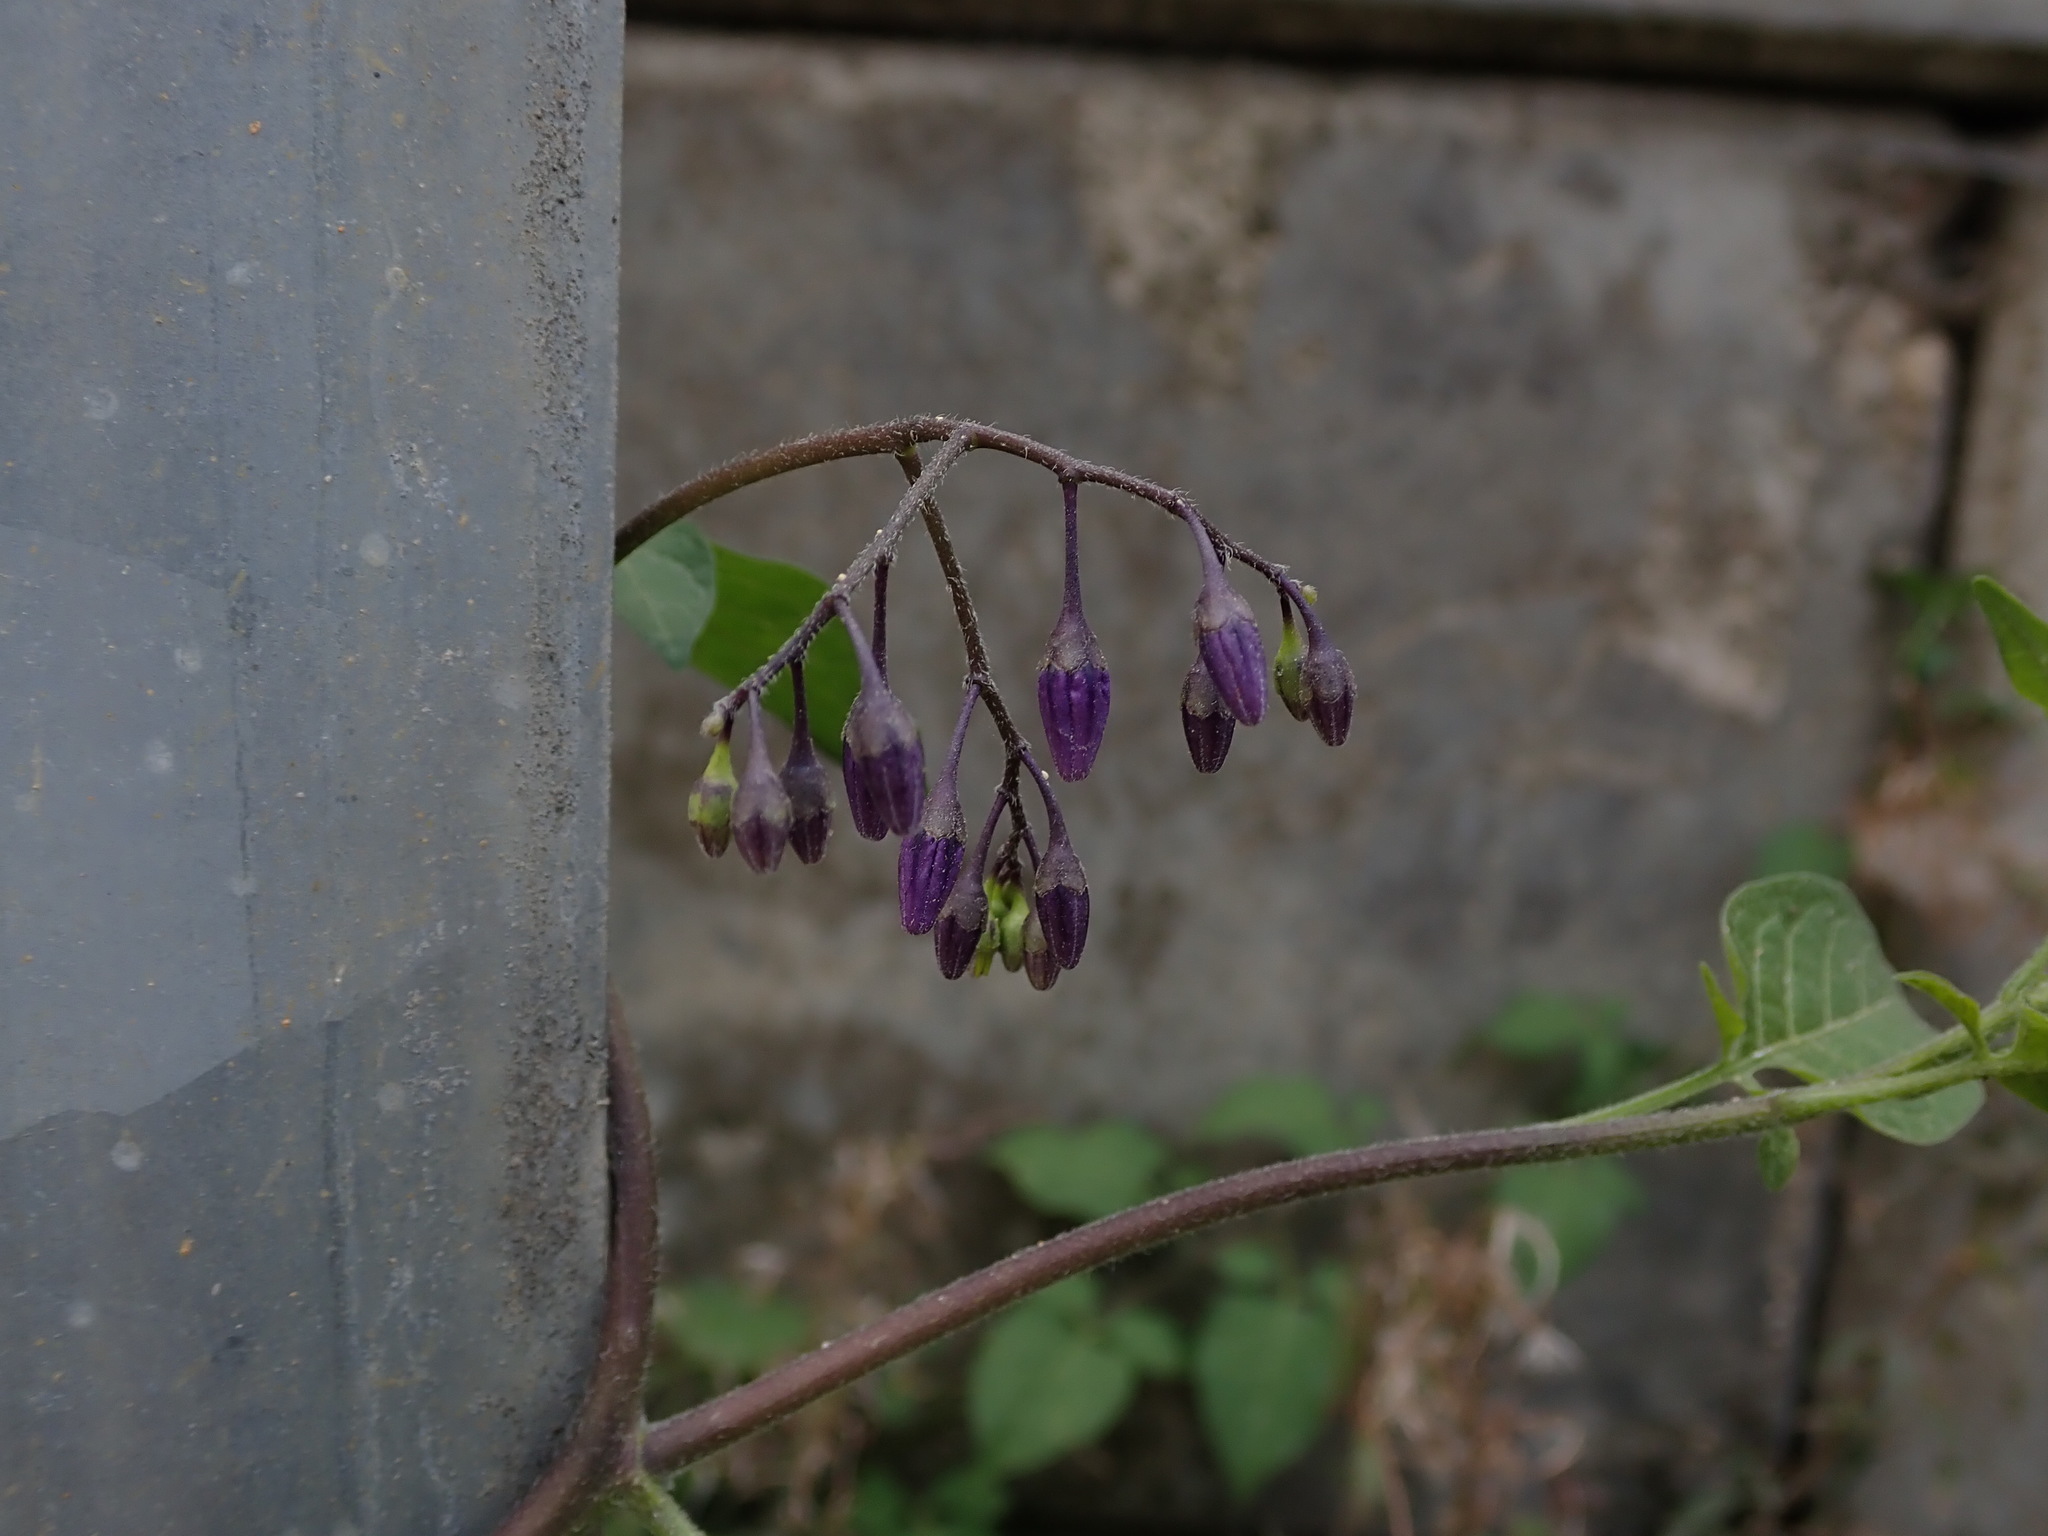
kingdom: Plantae
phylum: Tracheophyta
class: Magnoliopsida
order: Solanales
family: Solanaceae
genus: Solanum
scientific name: Solanum dulcamara
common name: Climbing nightshade
